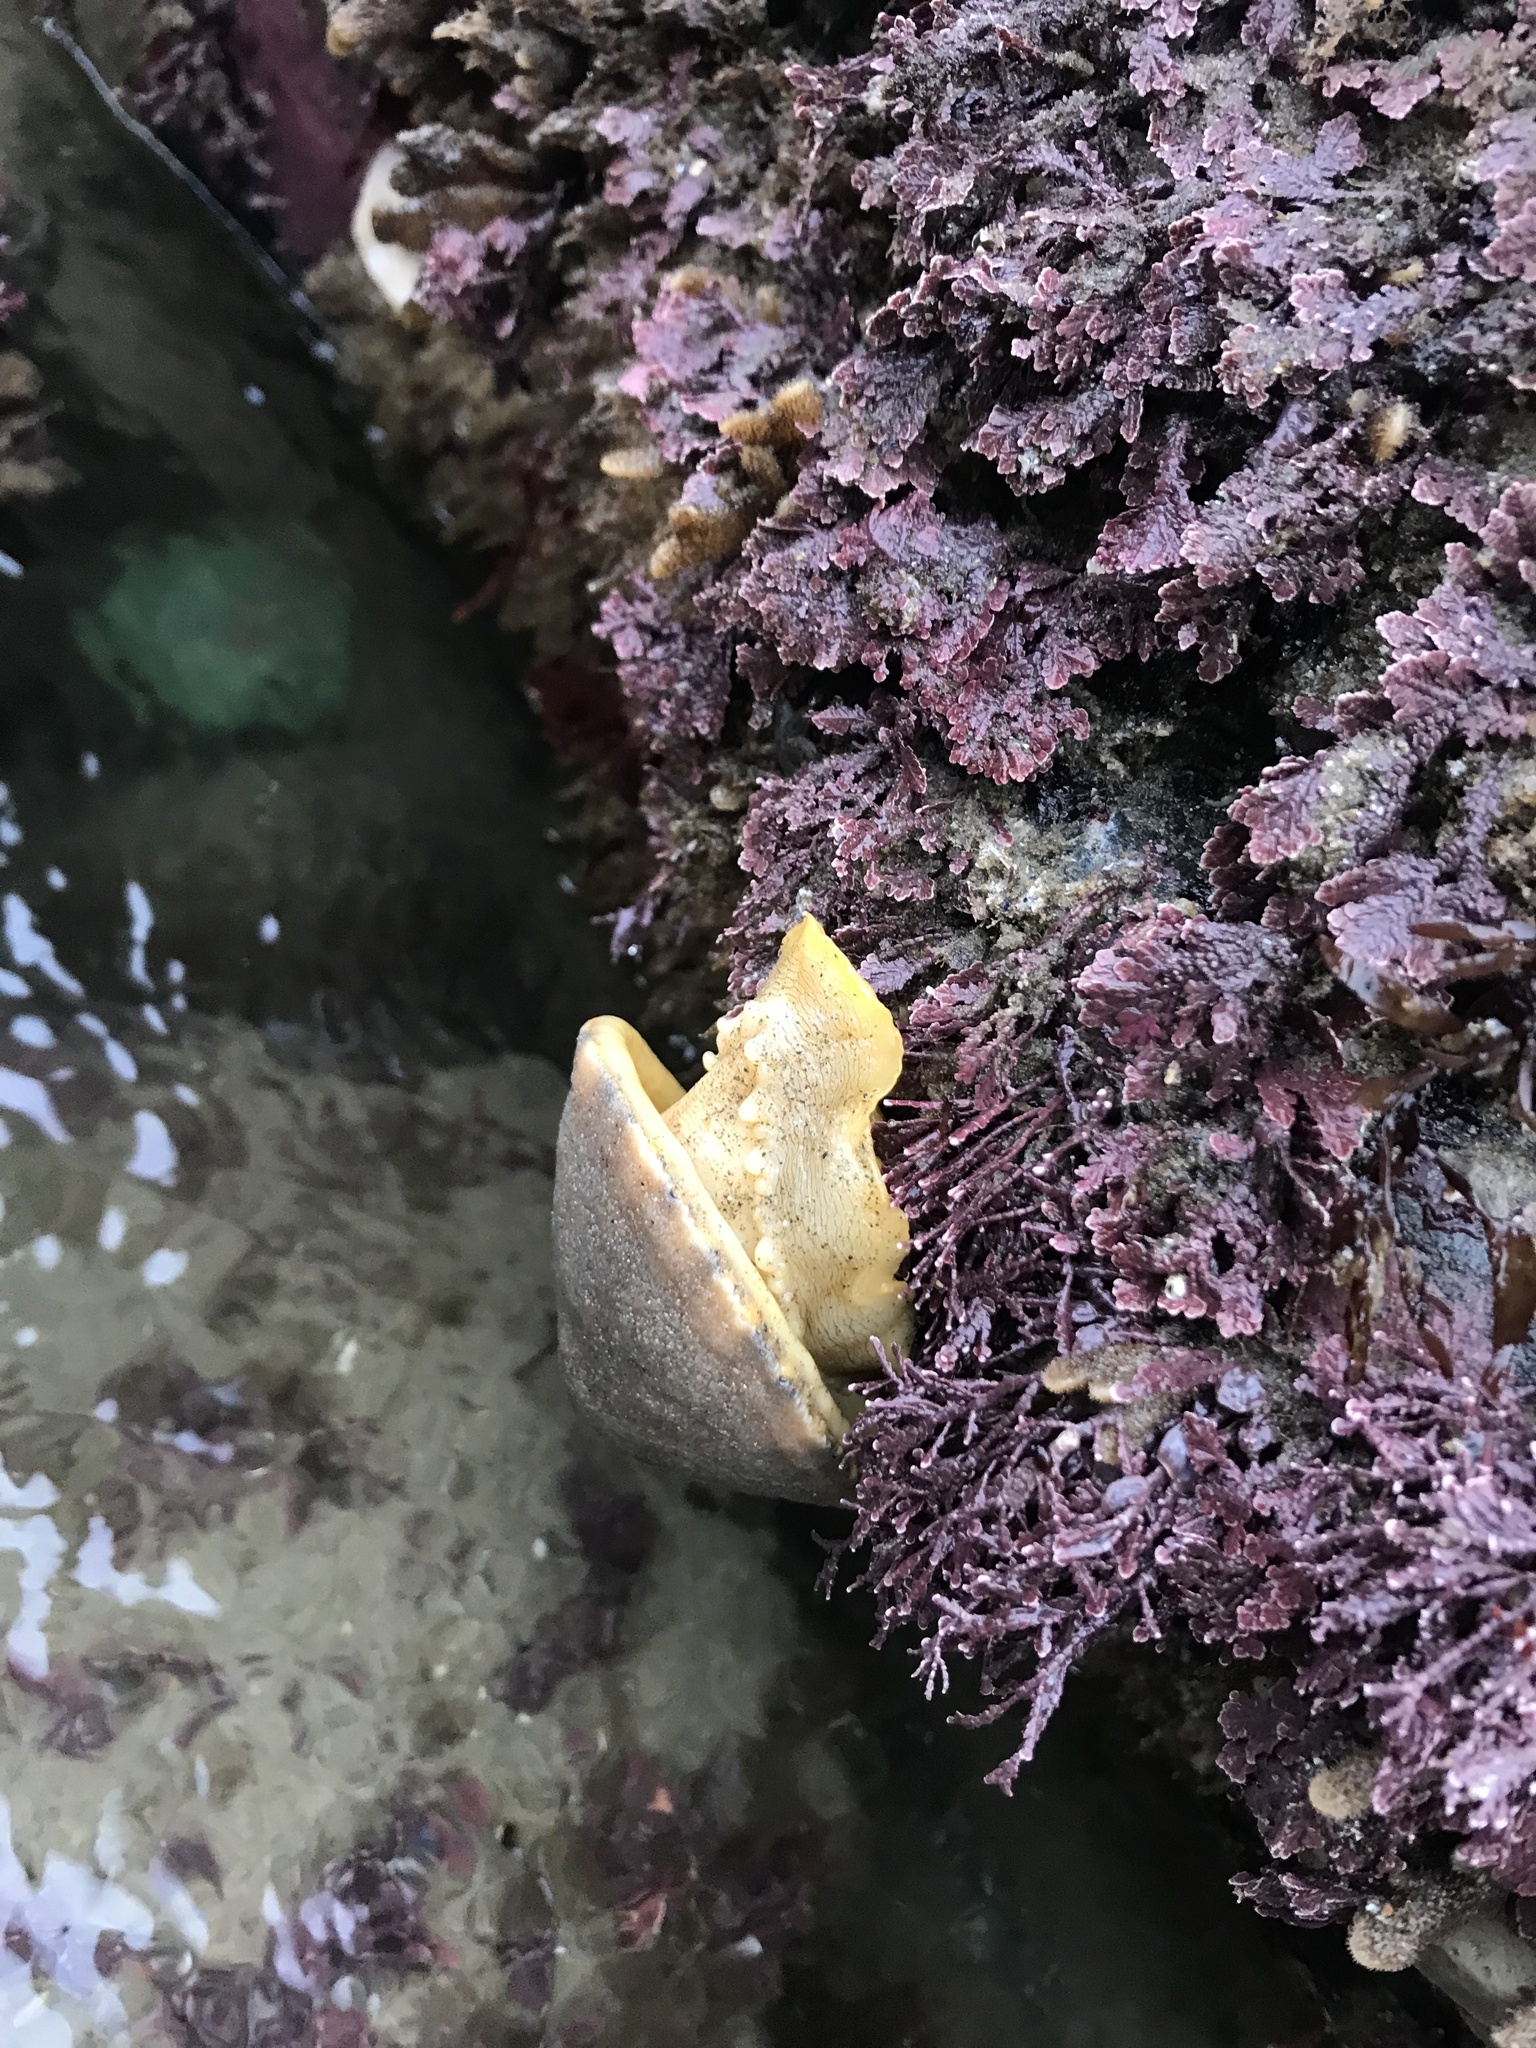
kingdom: Animalia
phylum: Mollusca
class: Gastropoda
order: Lepetellida
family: Fissurellidae
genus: Megathura
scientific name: Megathura crenulata
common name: Giant keyhole limpet
